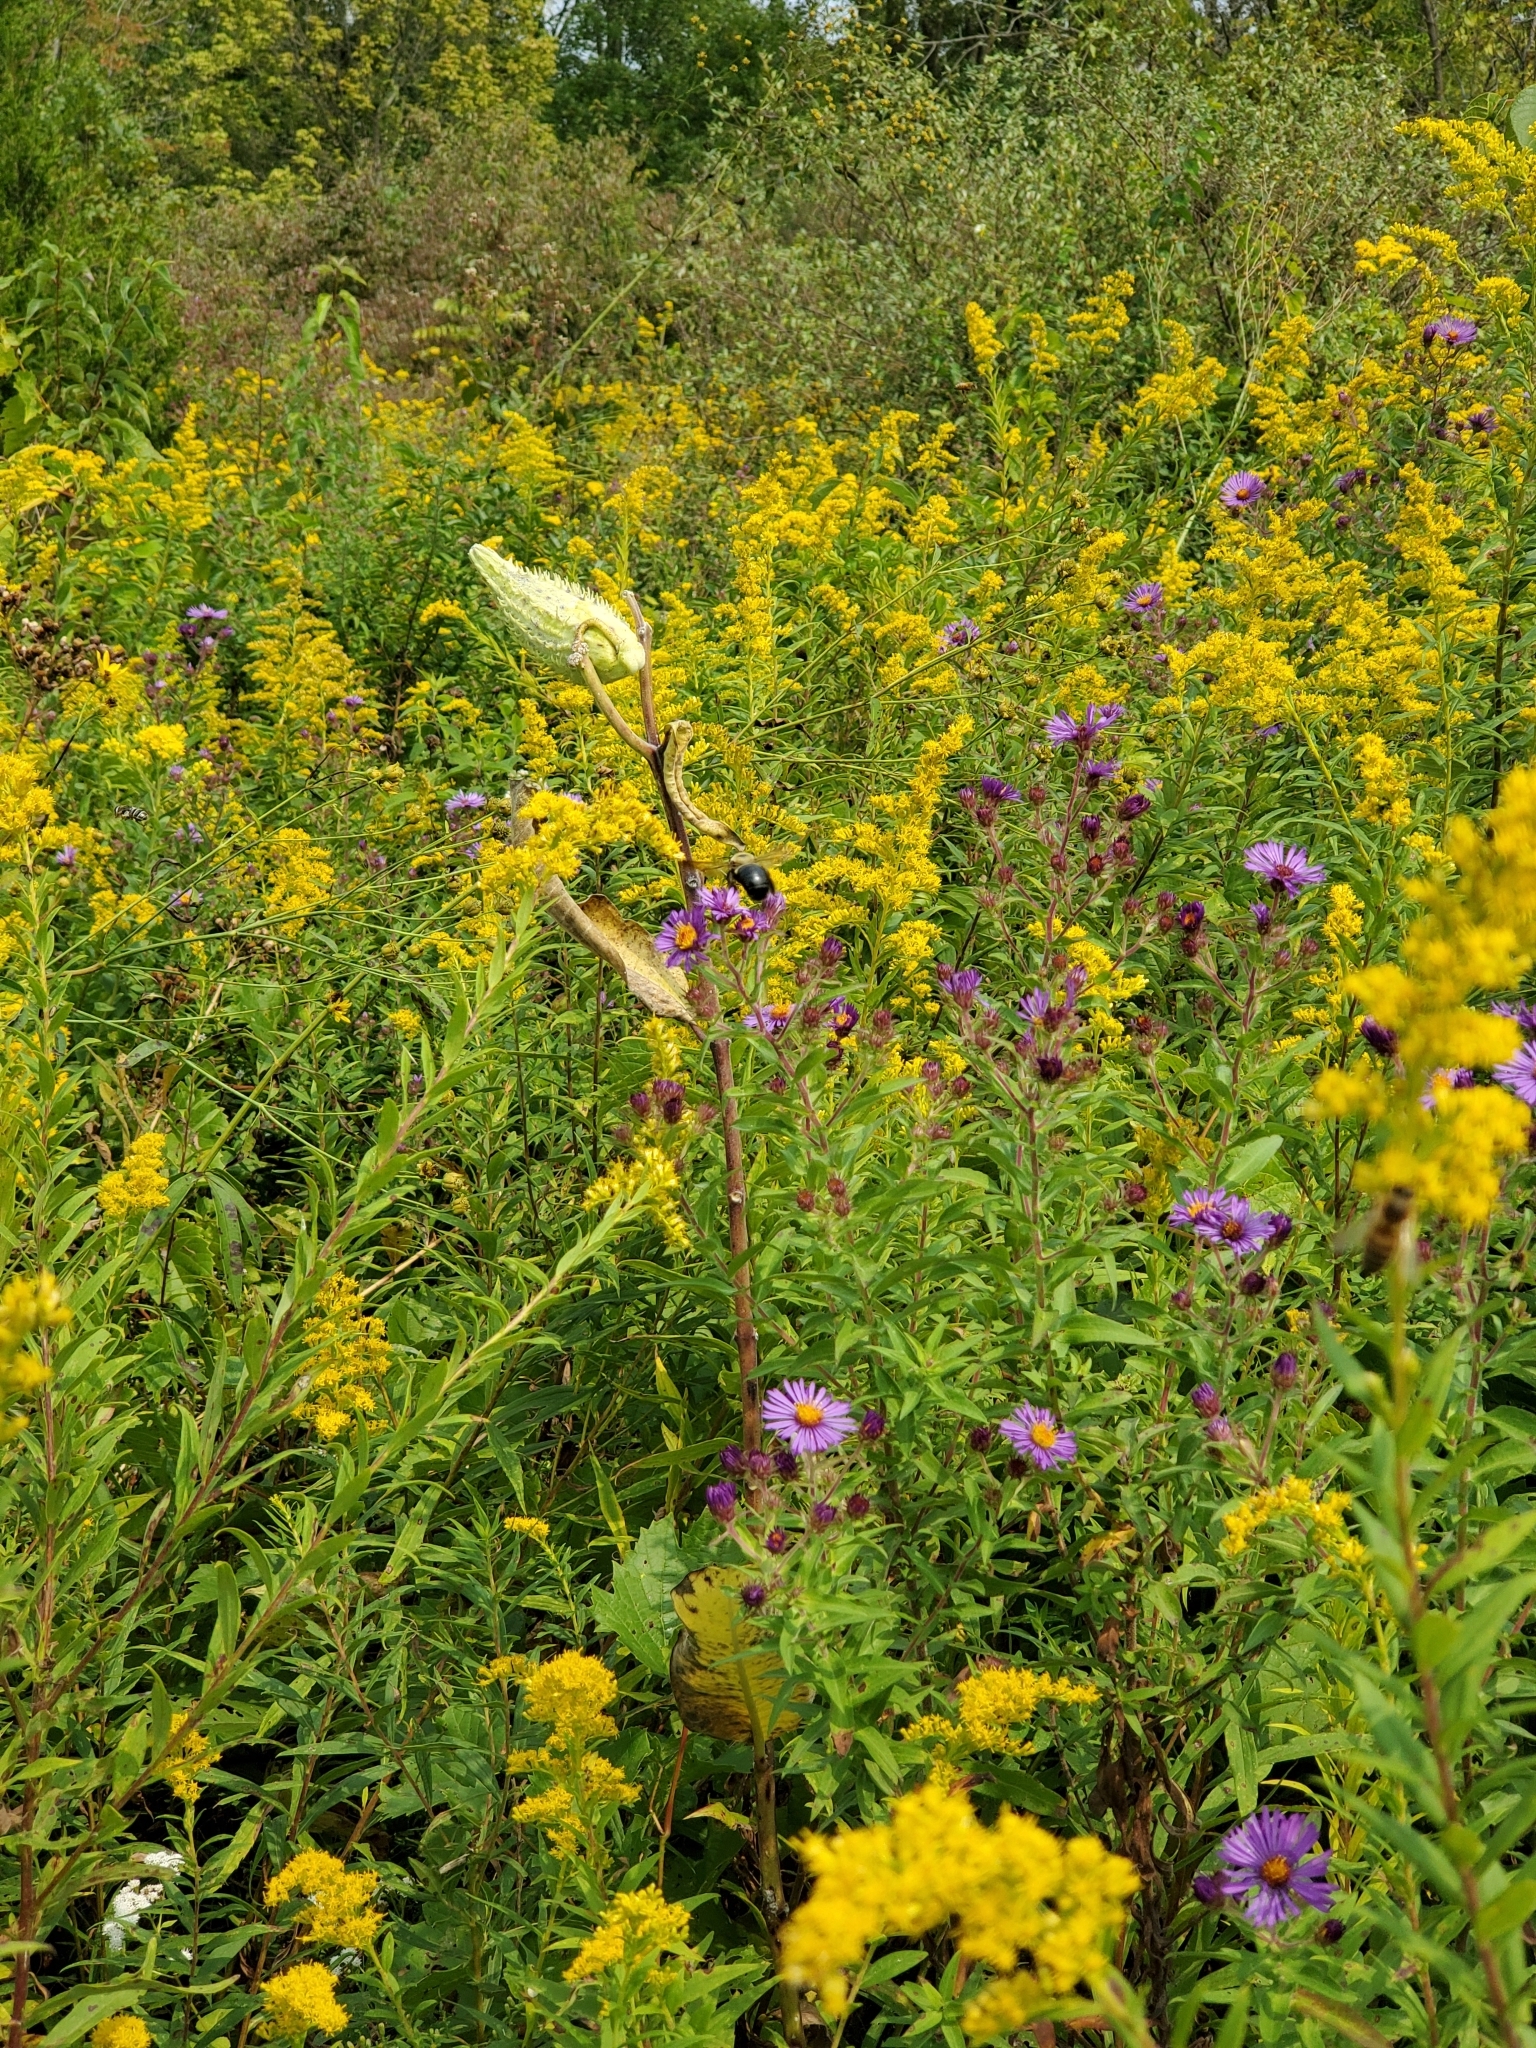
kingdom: Animalia
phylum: Arthropoda
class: Insecta
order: Hymenoptera
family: Apidae
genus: Xylocopa
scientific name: Xylocopa virginica
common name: Carpenter bee
